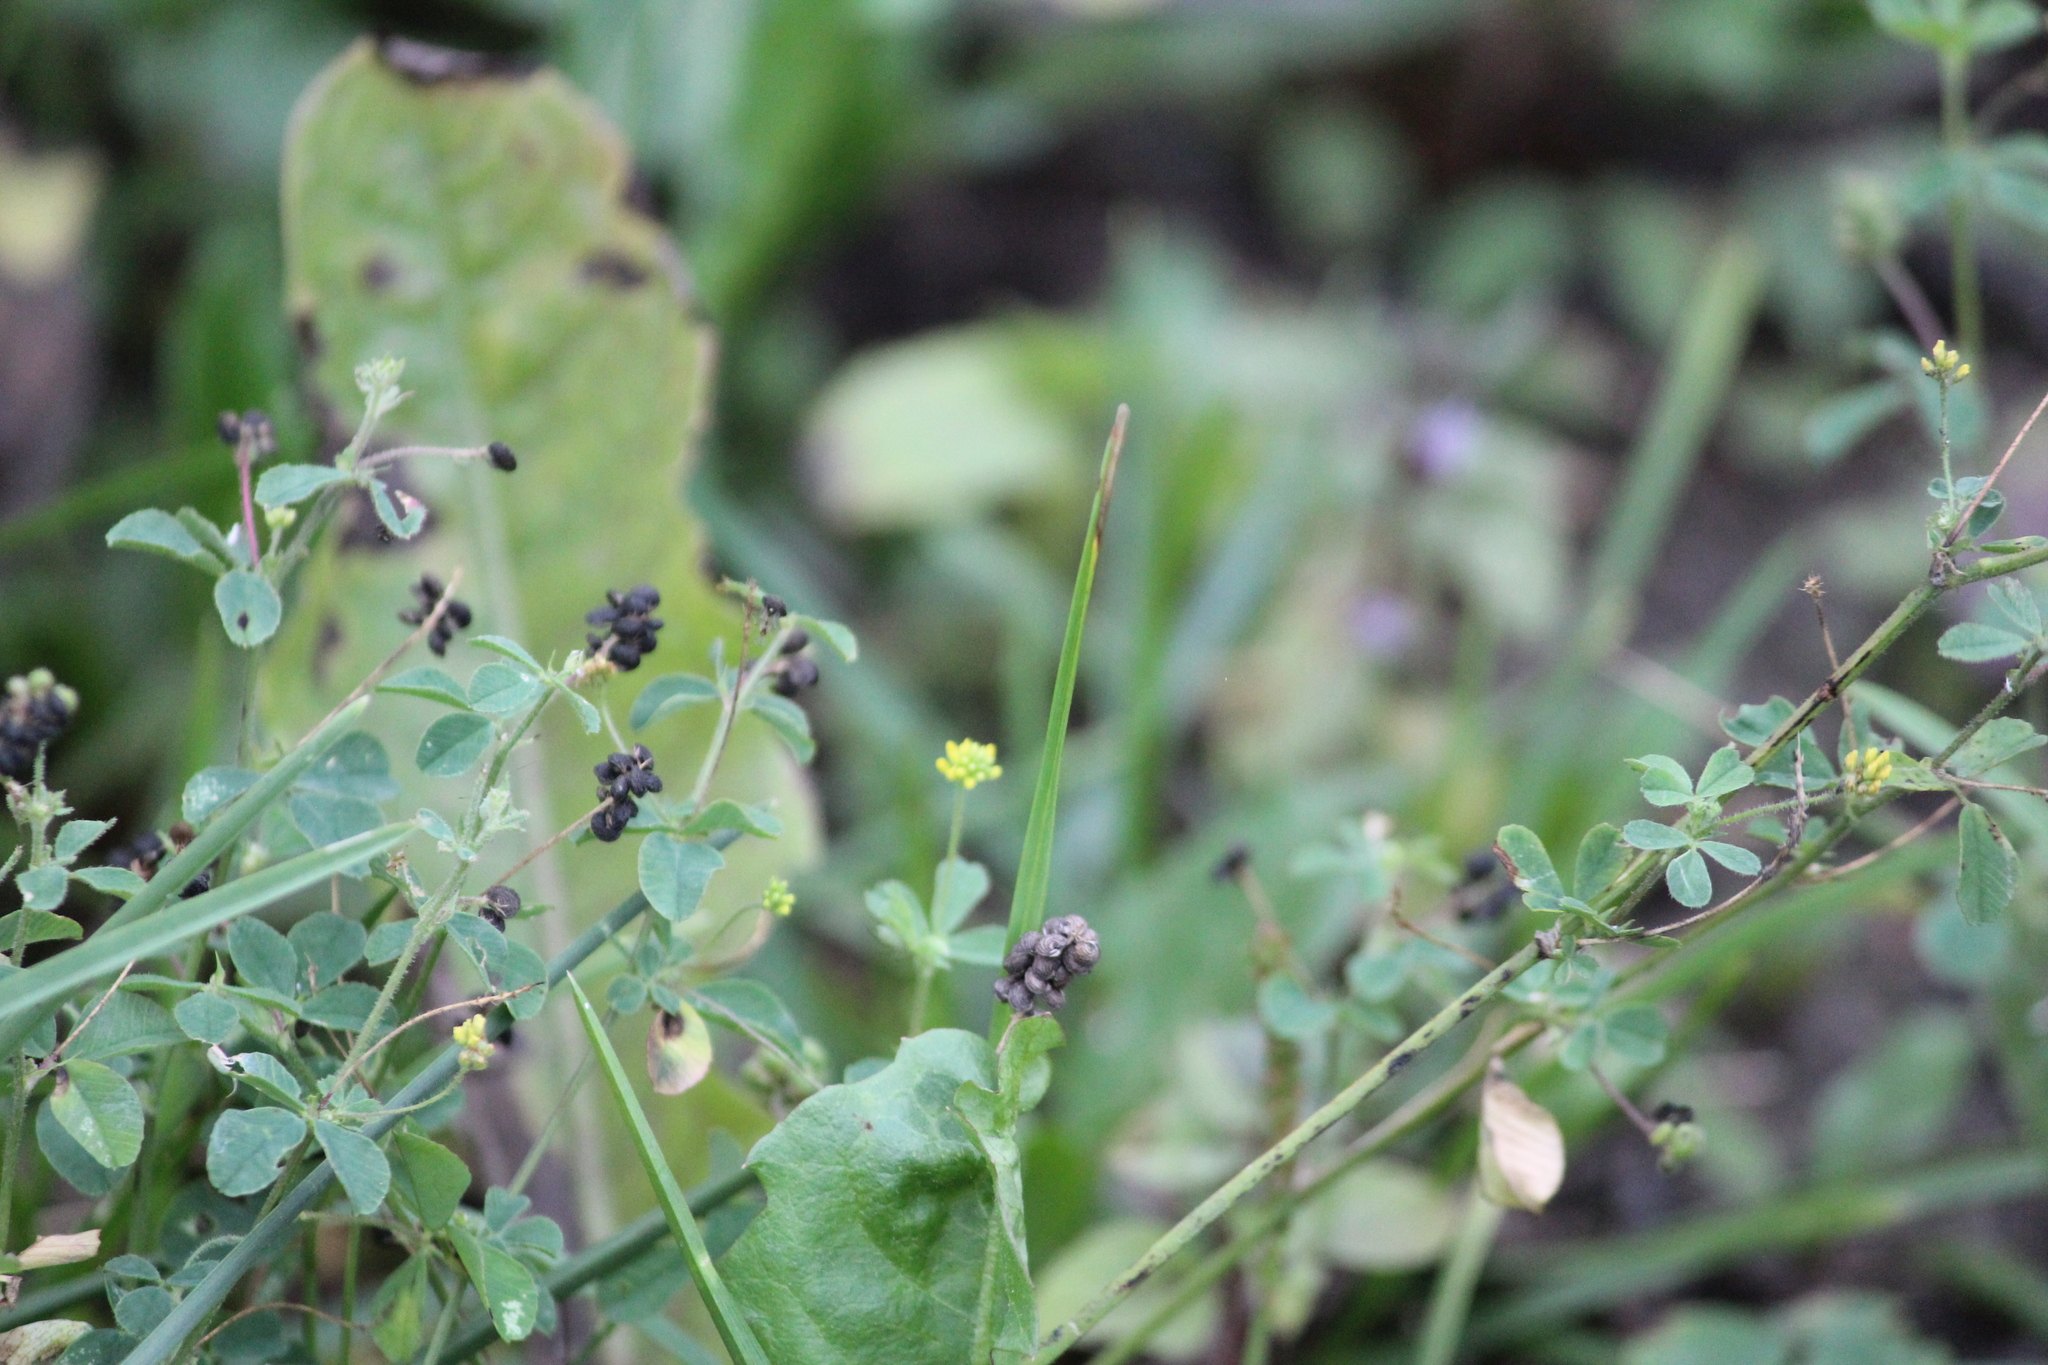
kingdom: Plantae
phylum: Tracheophyta
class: Magnoliopsida
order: Fabales
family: Fabaceae
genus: Medicago
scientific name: Medicago lupulina
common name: Black medick
